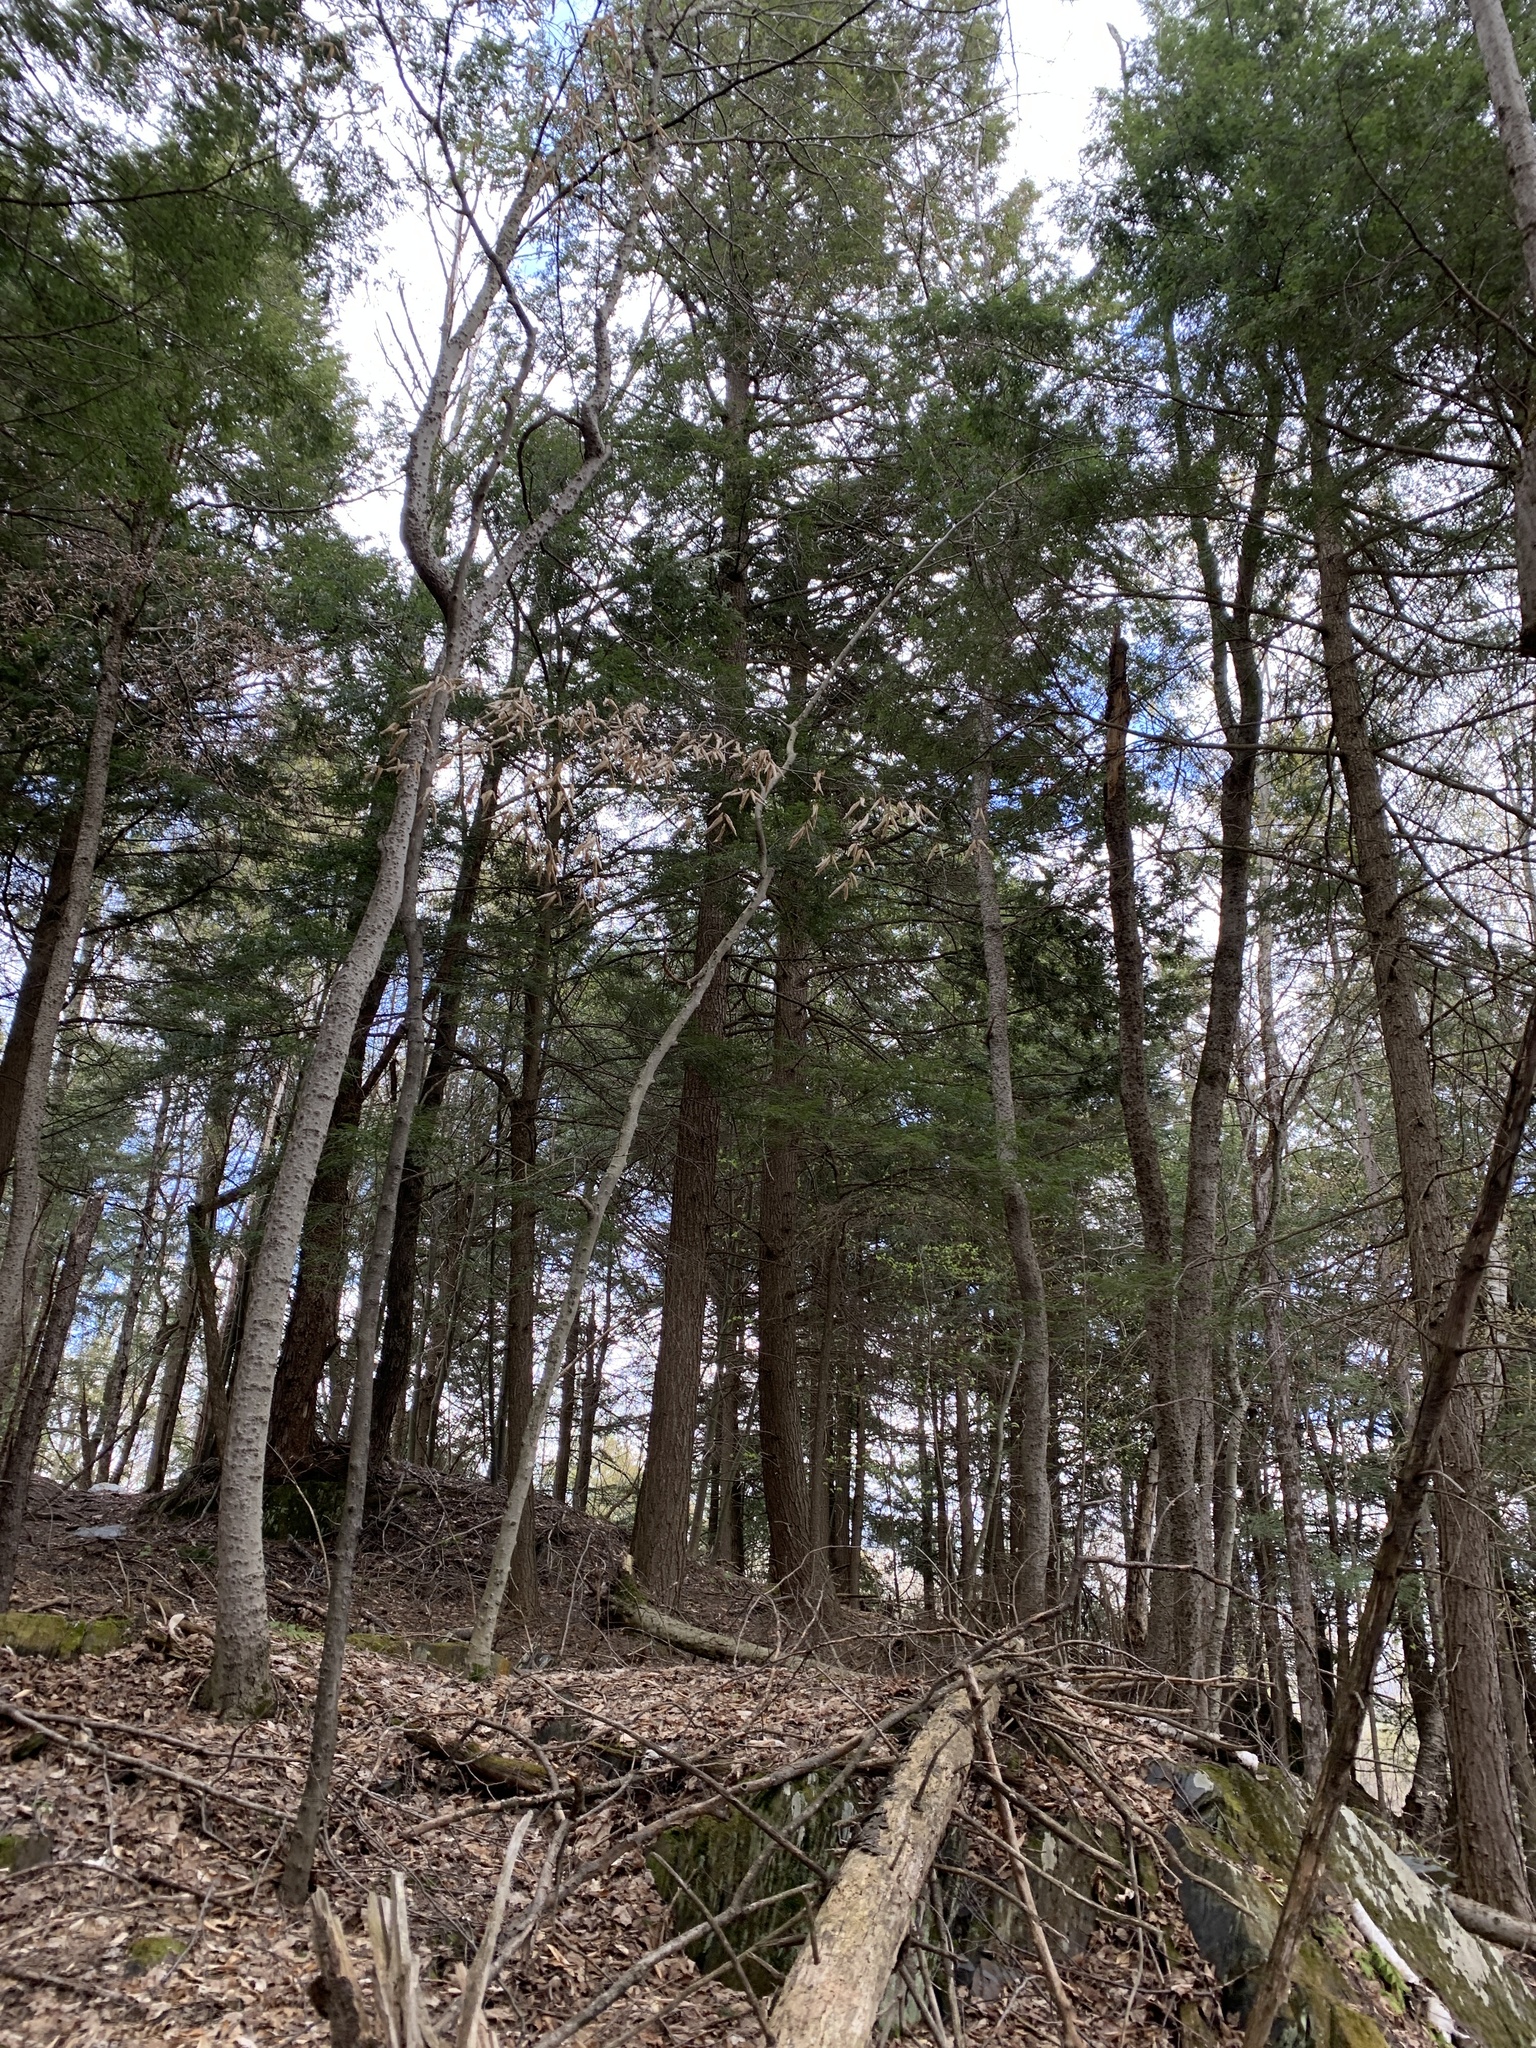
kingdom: Plantae
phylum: Tracheophyta
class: Pinopsida
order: Pinales
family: Pinaceae
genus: Tsuga
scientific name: Tsuga canadensis
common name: Eastern hemlock
